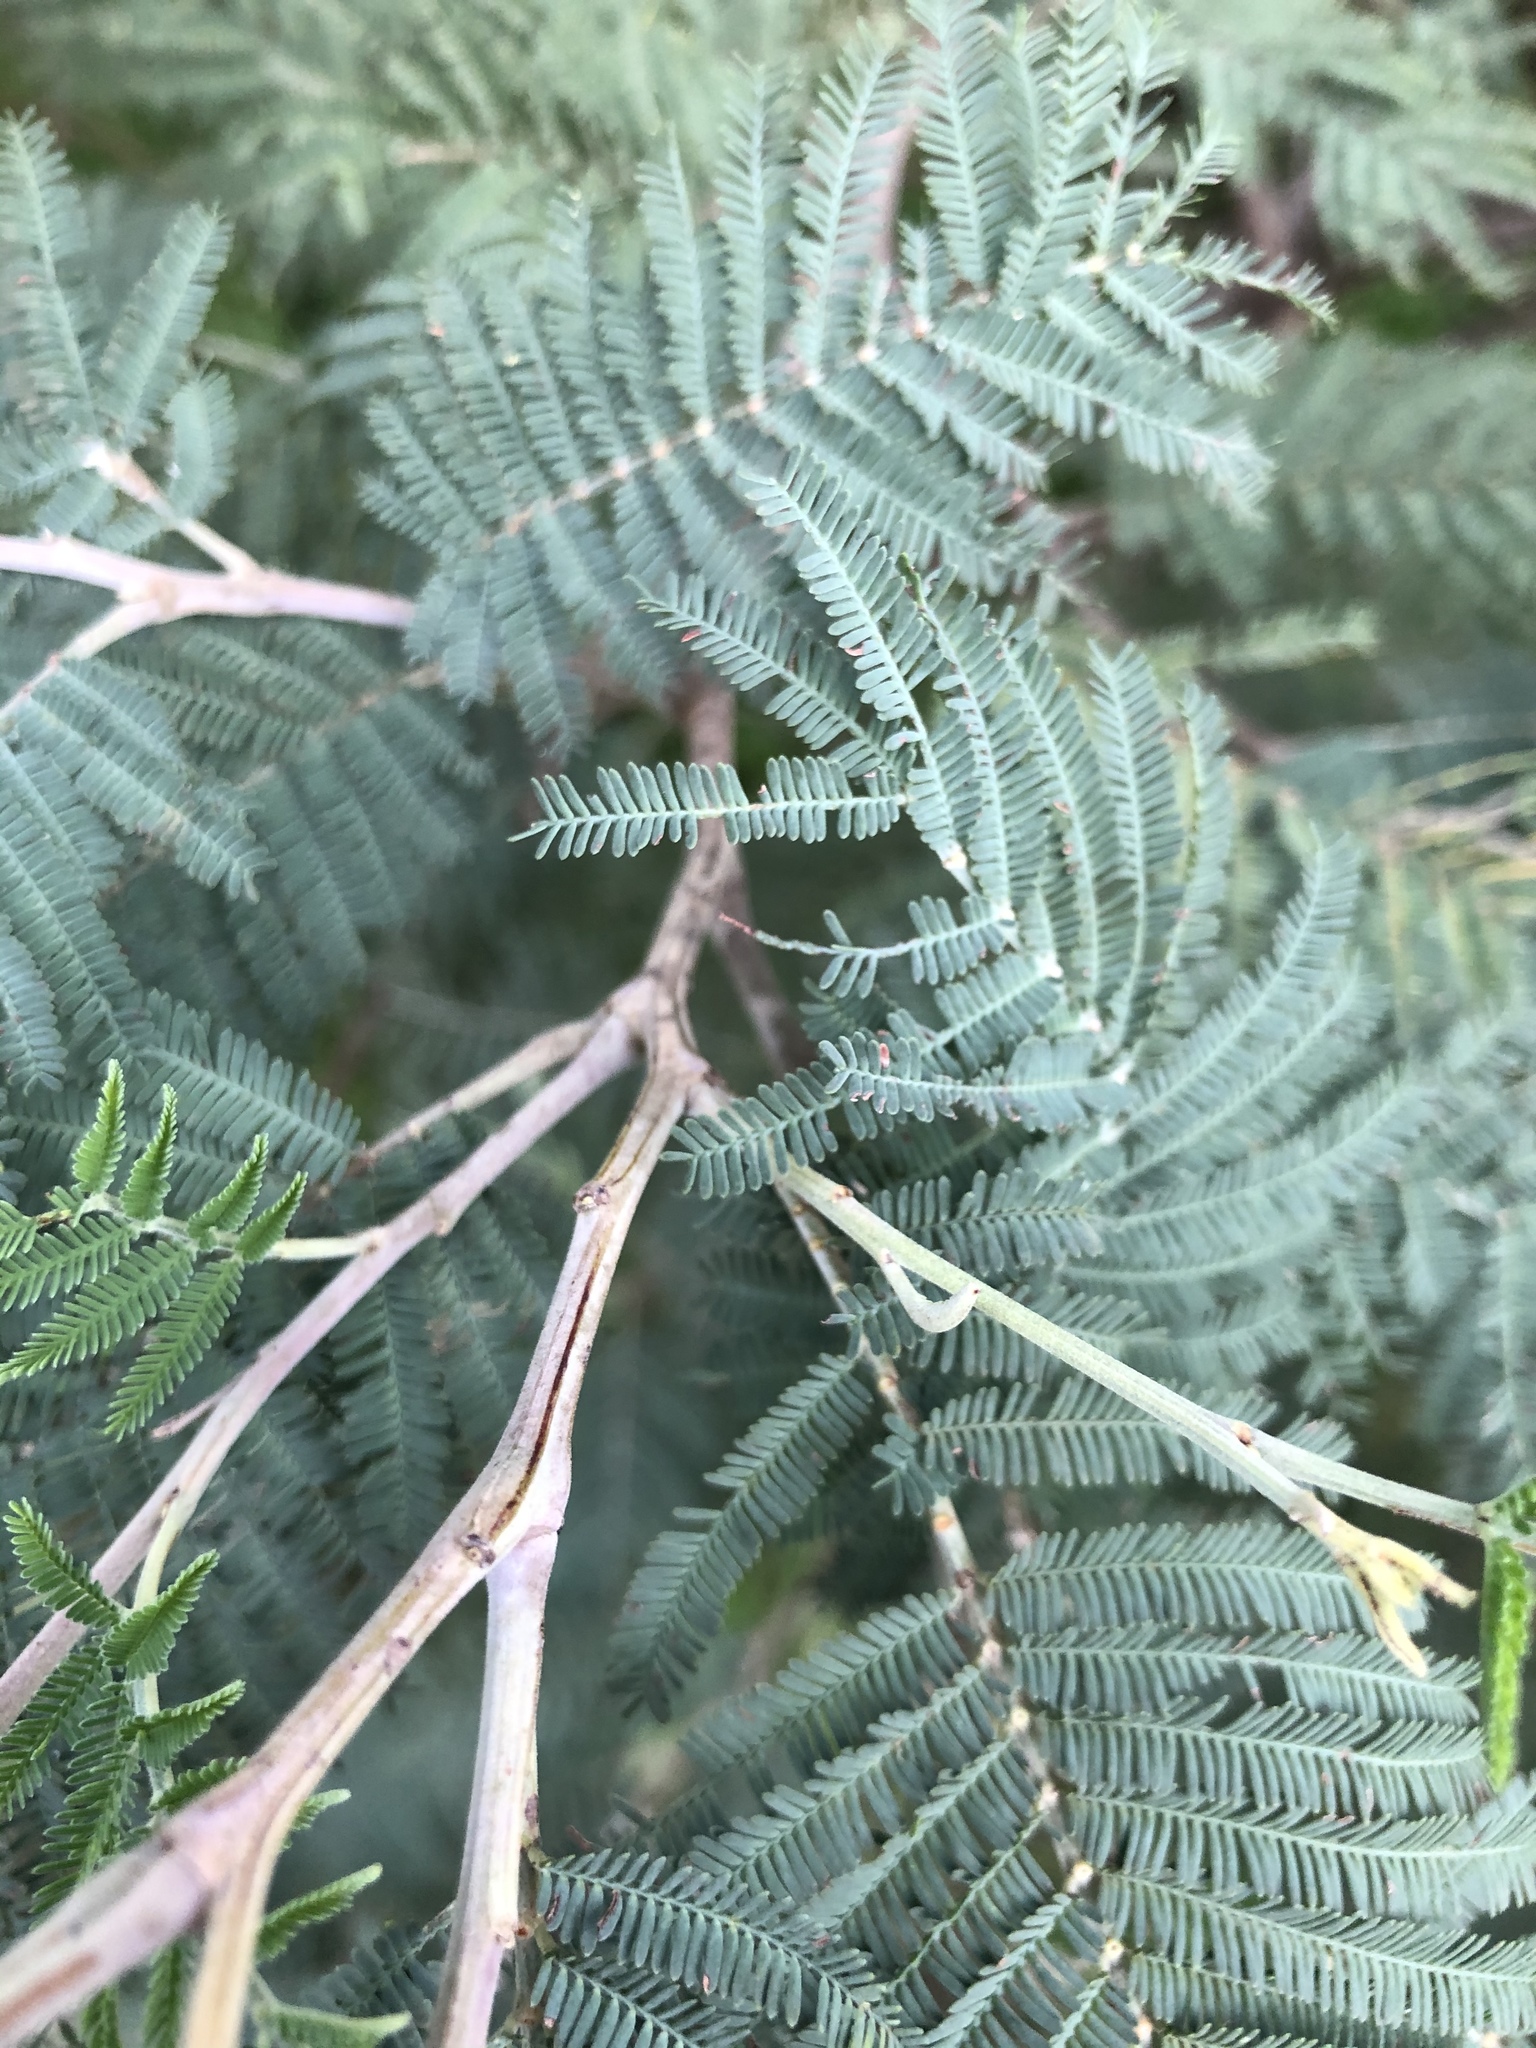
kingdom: Plantae
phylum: Tracheophyta
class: Magnoliopsida
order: Fabales
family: Fabaceae
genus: Acacia
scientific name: Acacia dealbata
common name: Silver wattle
